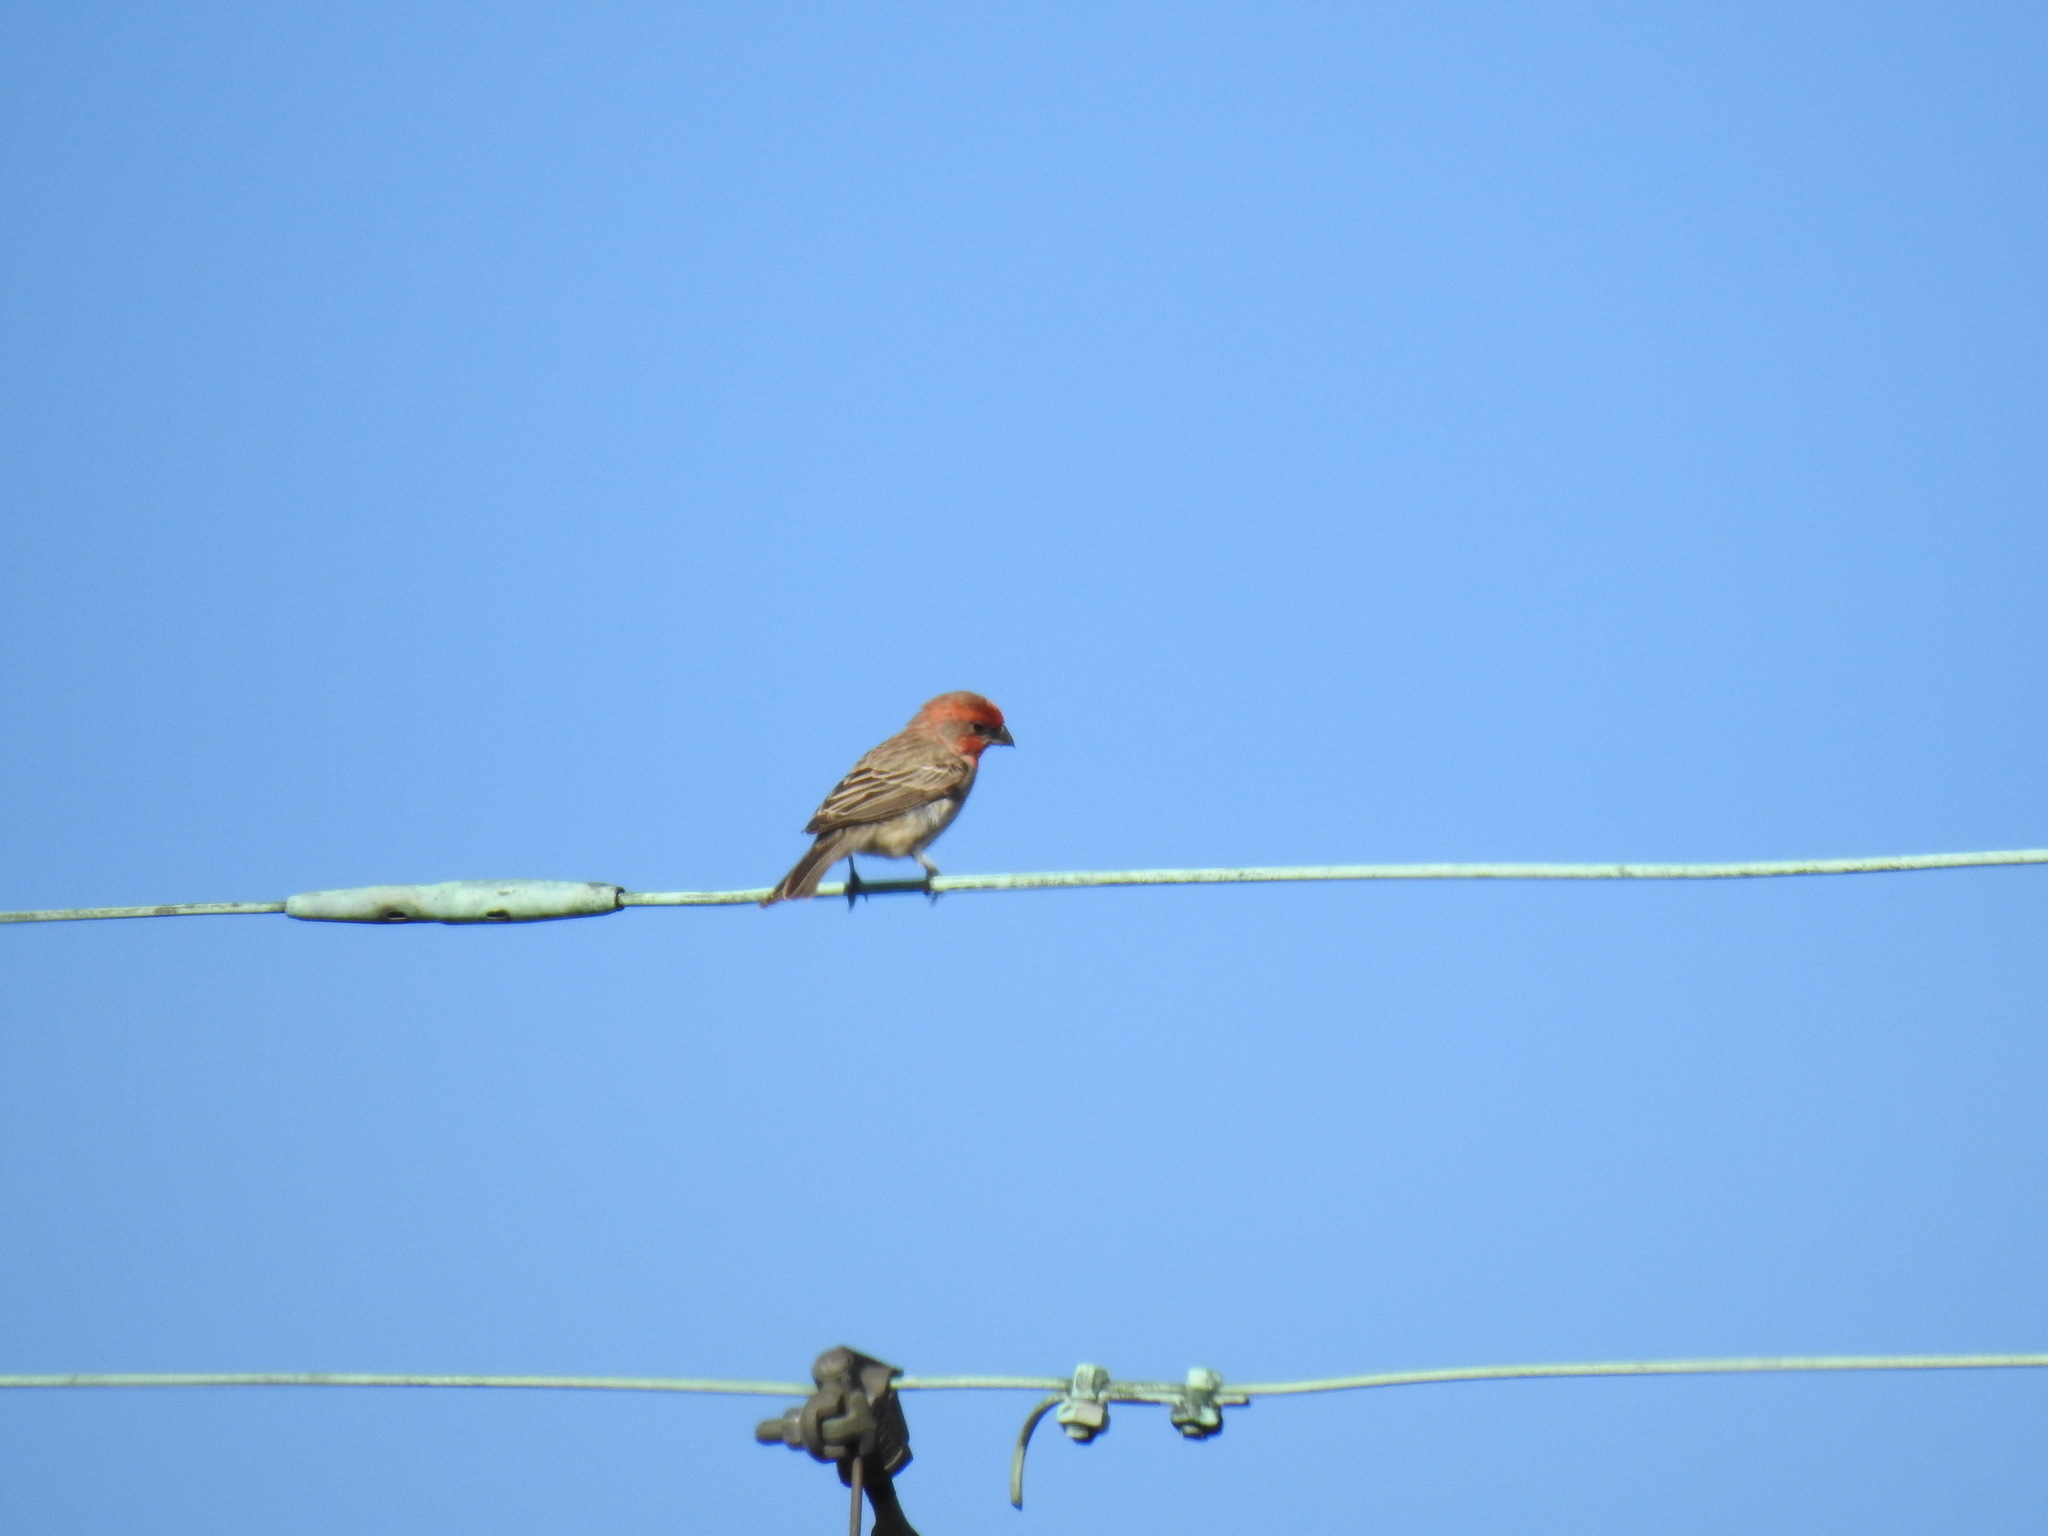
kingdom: Animalia
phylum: Chordata
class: Aves
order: Passeriformes
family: Fringillidae
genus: Haemorhous
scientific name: Haemorhous mexicanus
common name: House finch
